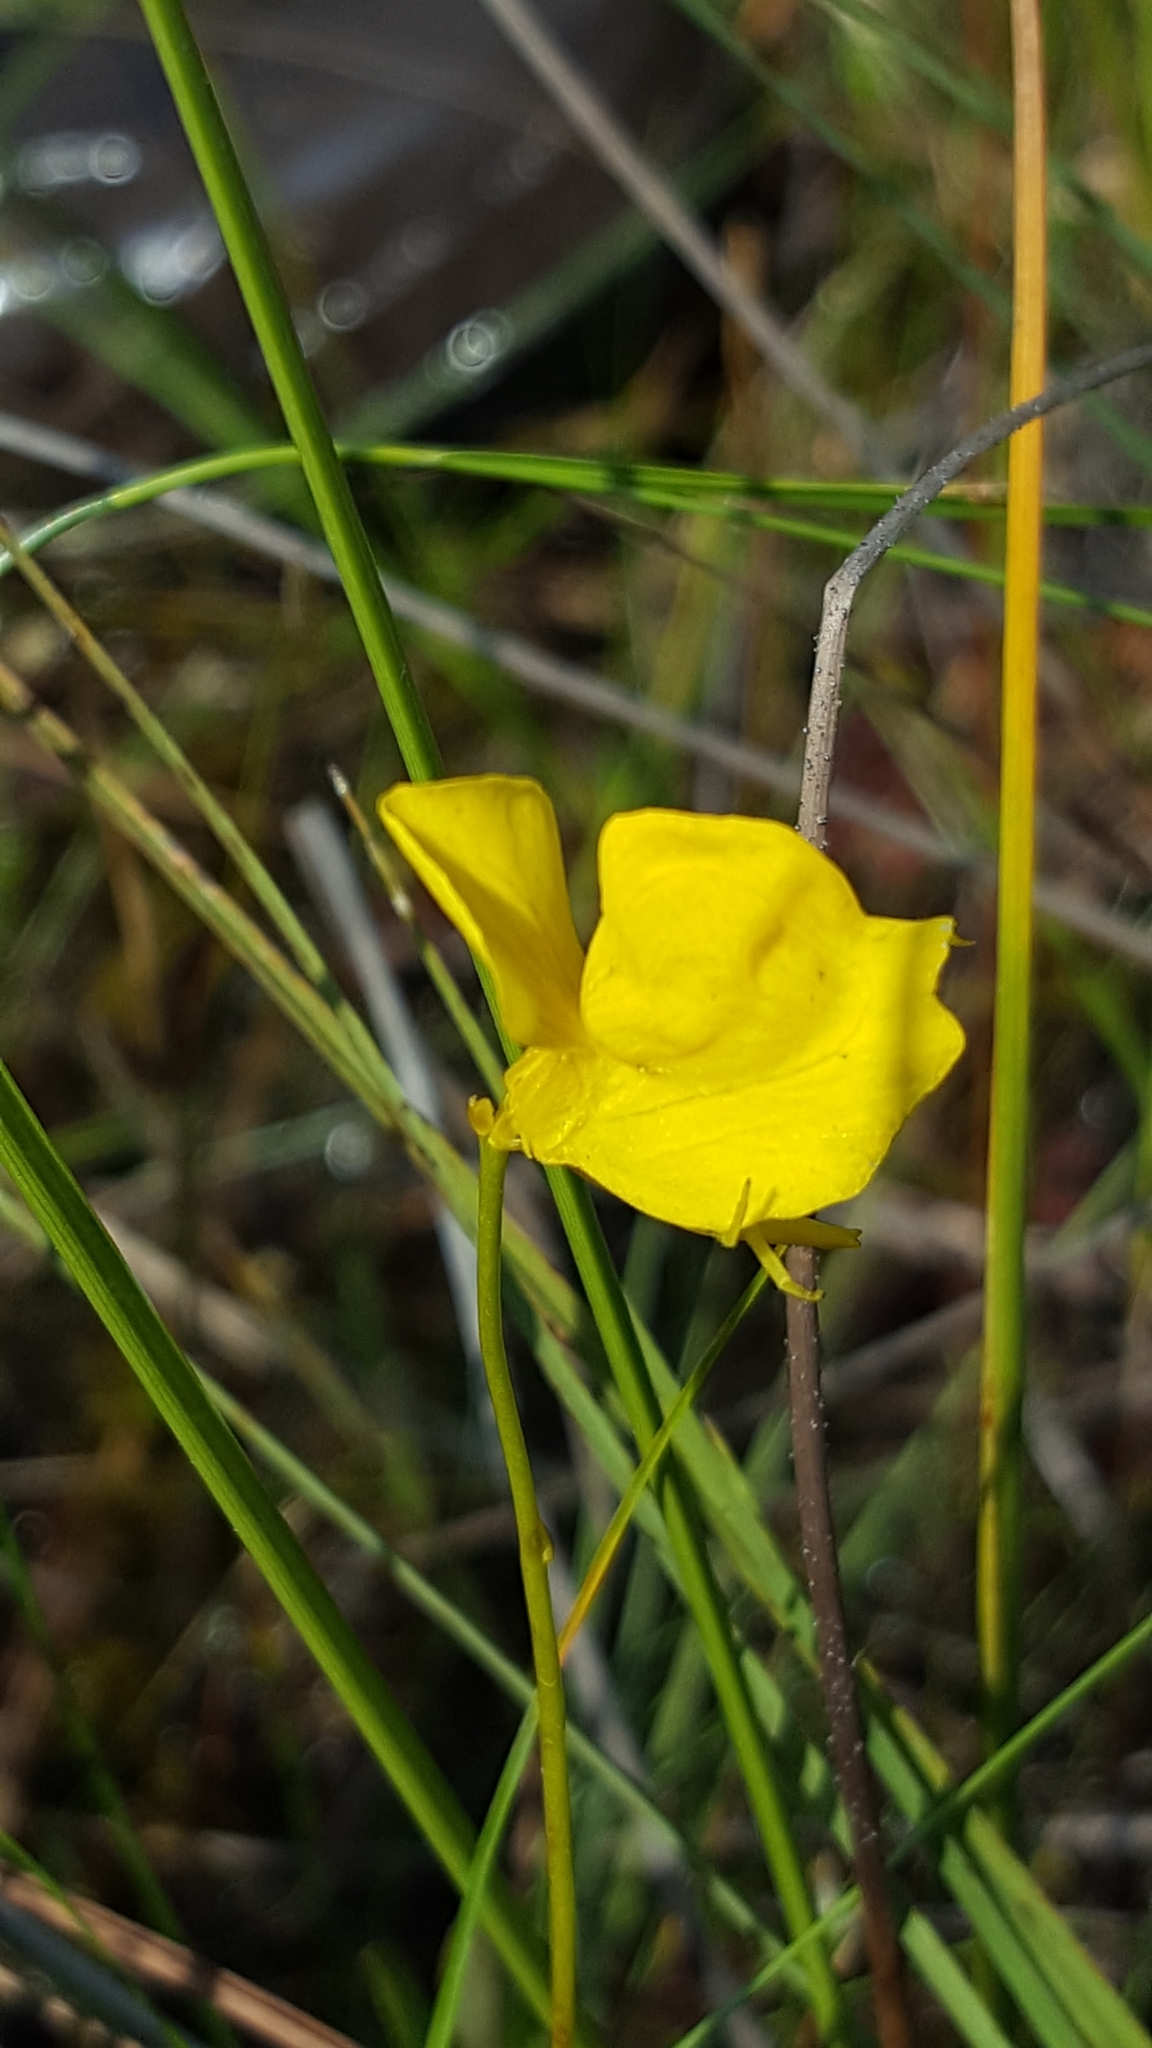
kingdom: Plantae
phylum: Tracheophyta
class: Magnoliopsida
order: Lamiales
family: Lentibulariaceae
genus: Utricularia
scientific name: Utricularia cornuta
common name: Horned bladderwort
